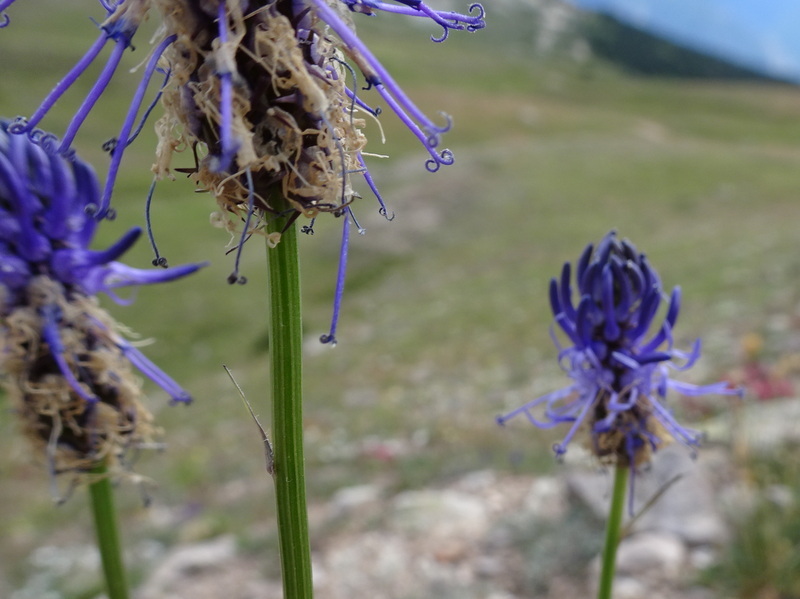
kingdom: Plantae
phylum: Tracheophyta
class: Magnoliopsida
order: Asterales
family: Campanulaceae
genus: Phyteuma
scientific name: Phyteuma betonicifolium
